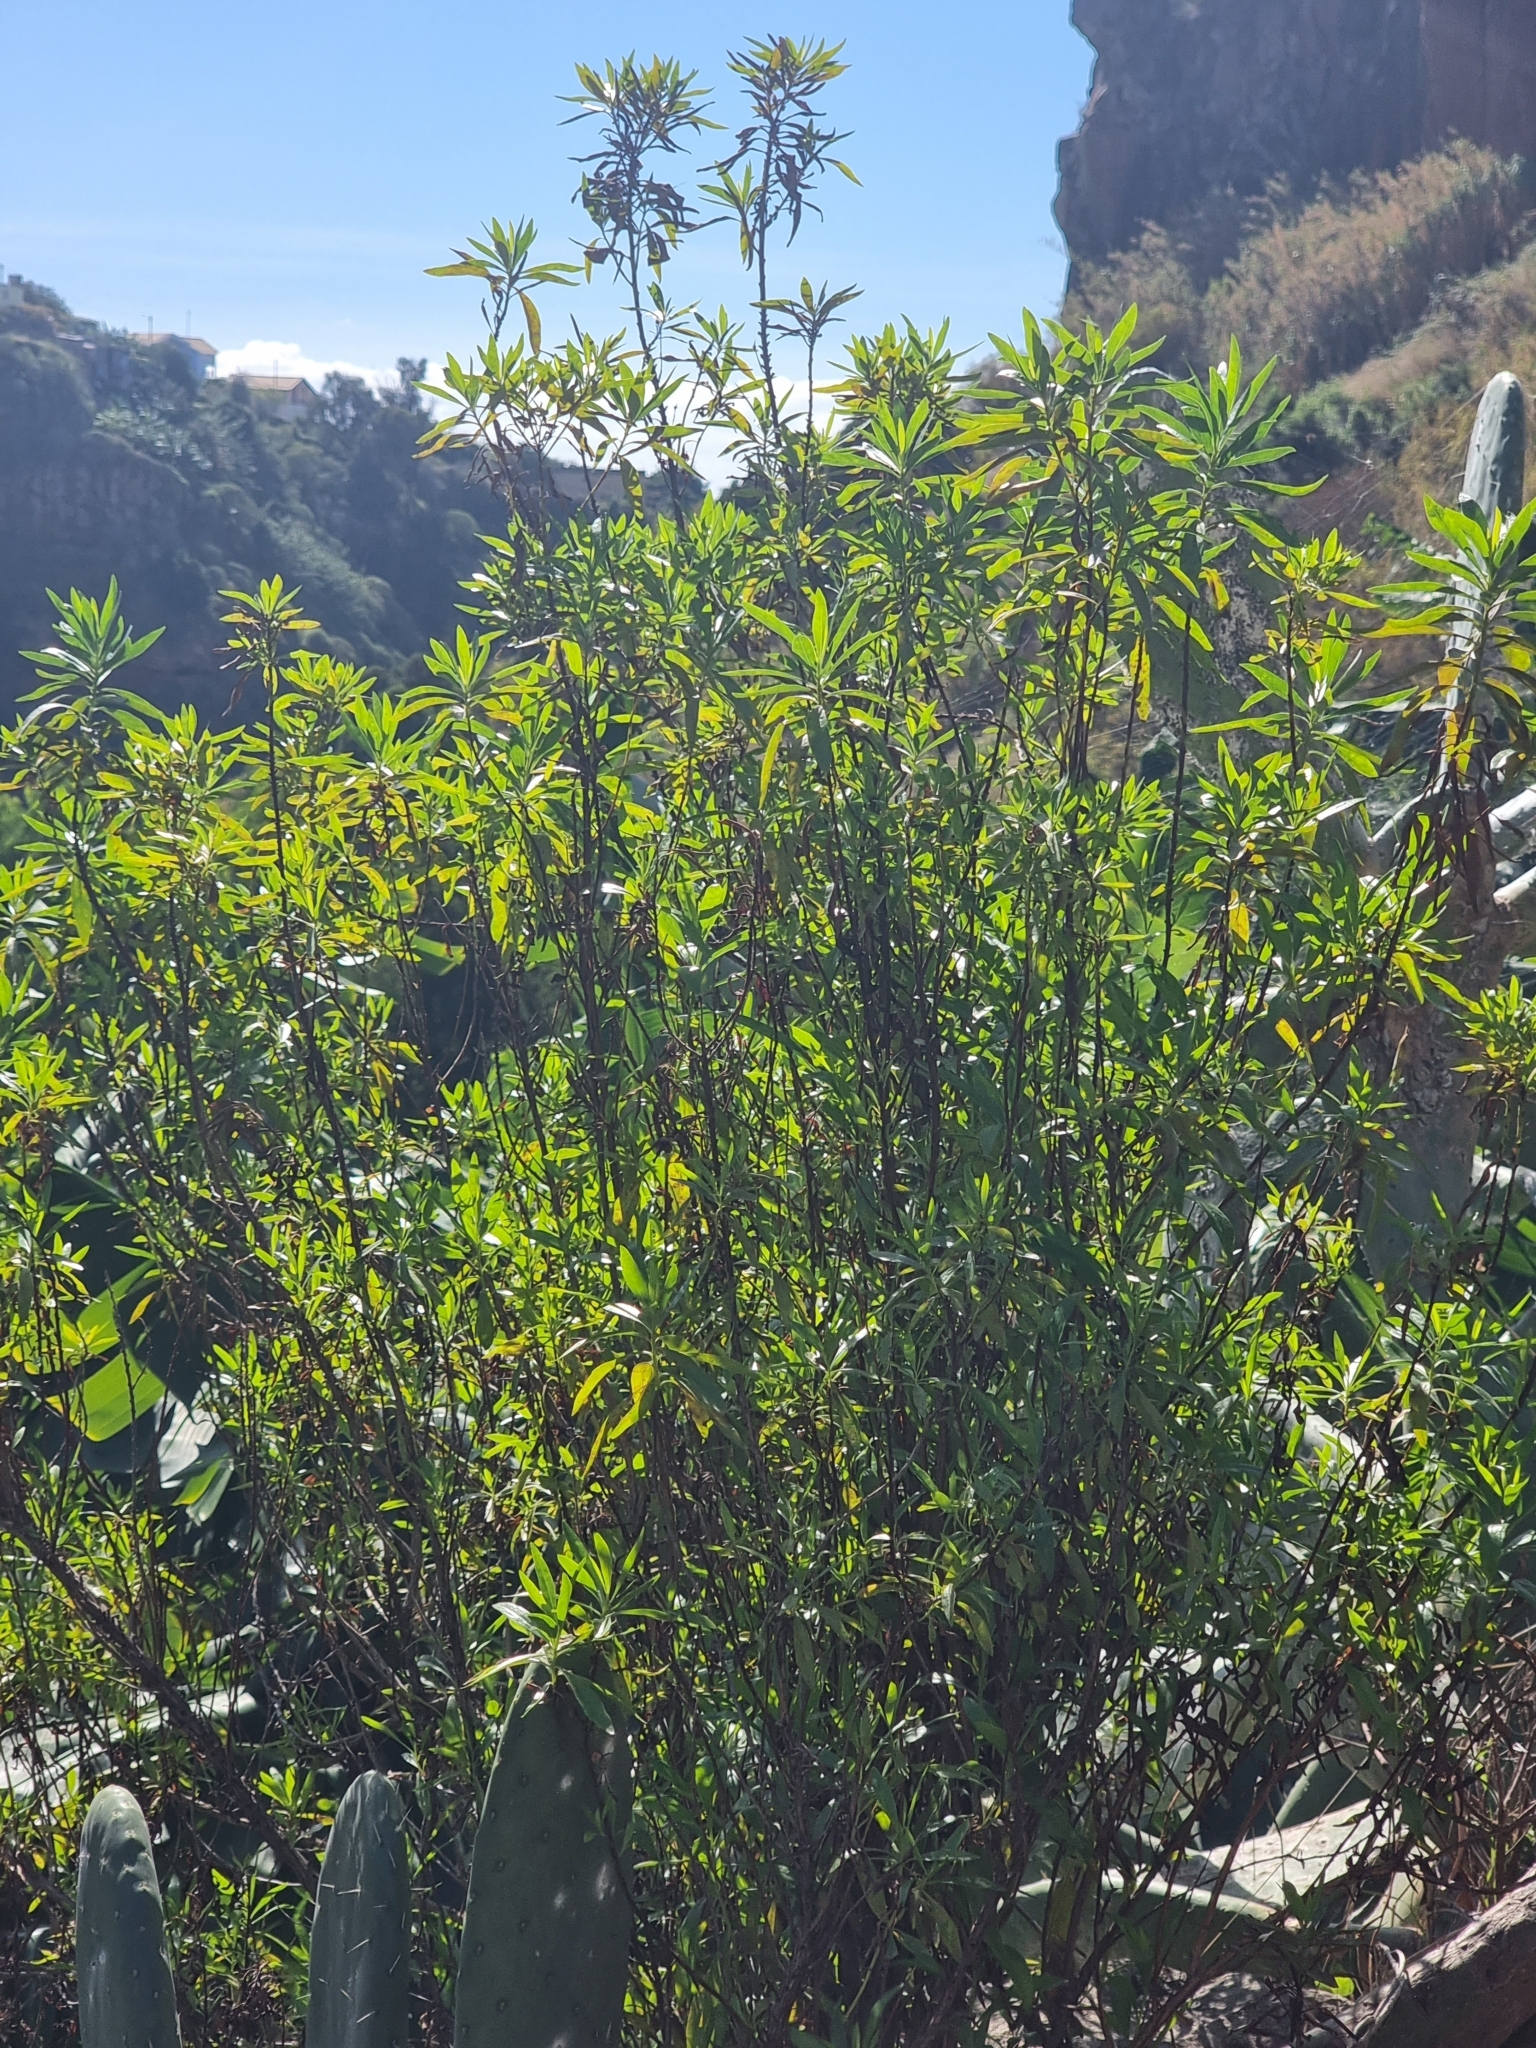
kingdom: Plantae
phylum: Tracheophyta
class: Magnoliopsida
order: Lamiales
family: Plantaginaceae
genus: Globularia
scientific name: Globularia salicina
